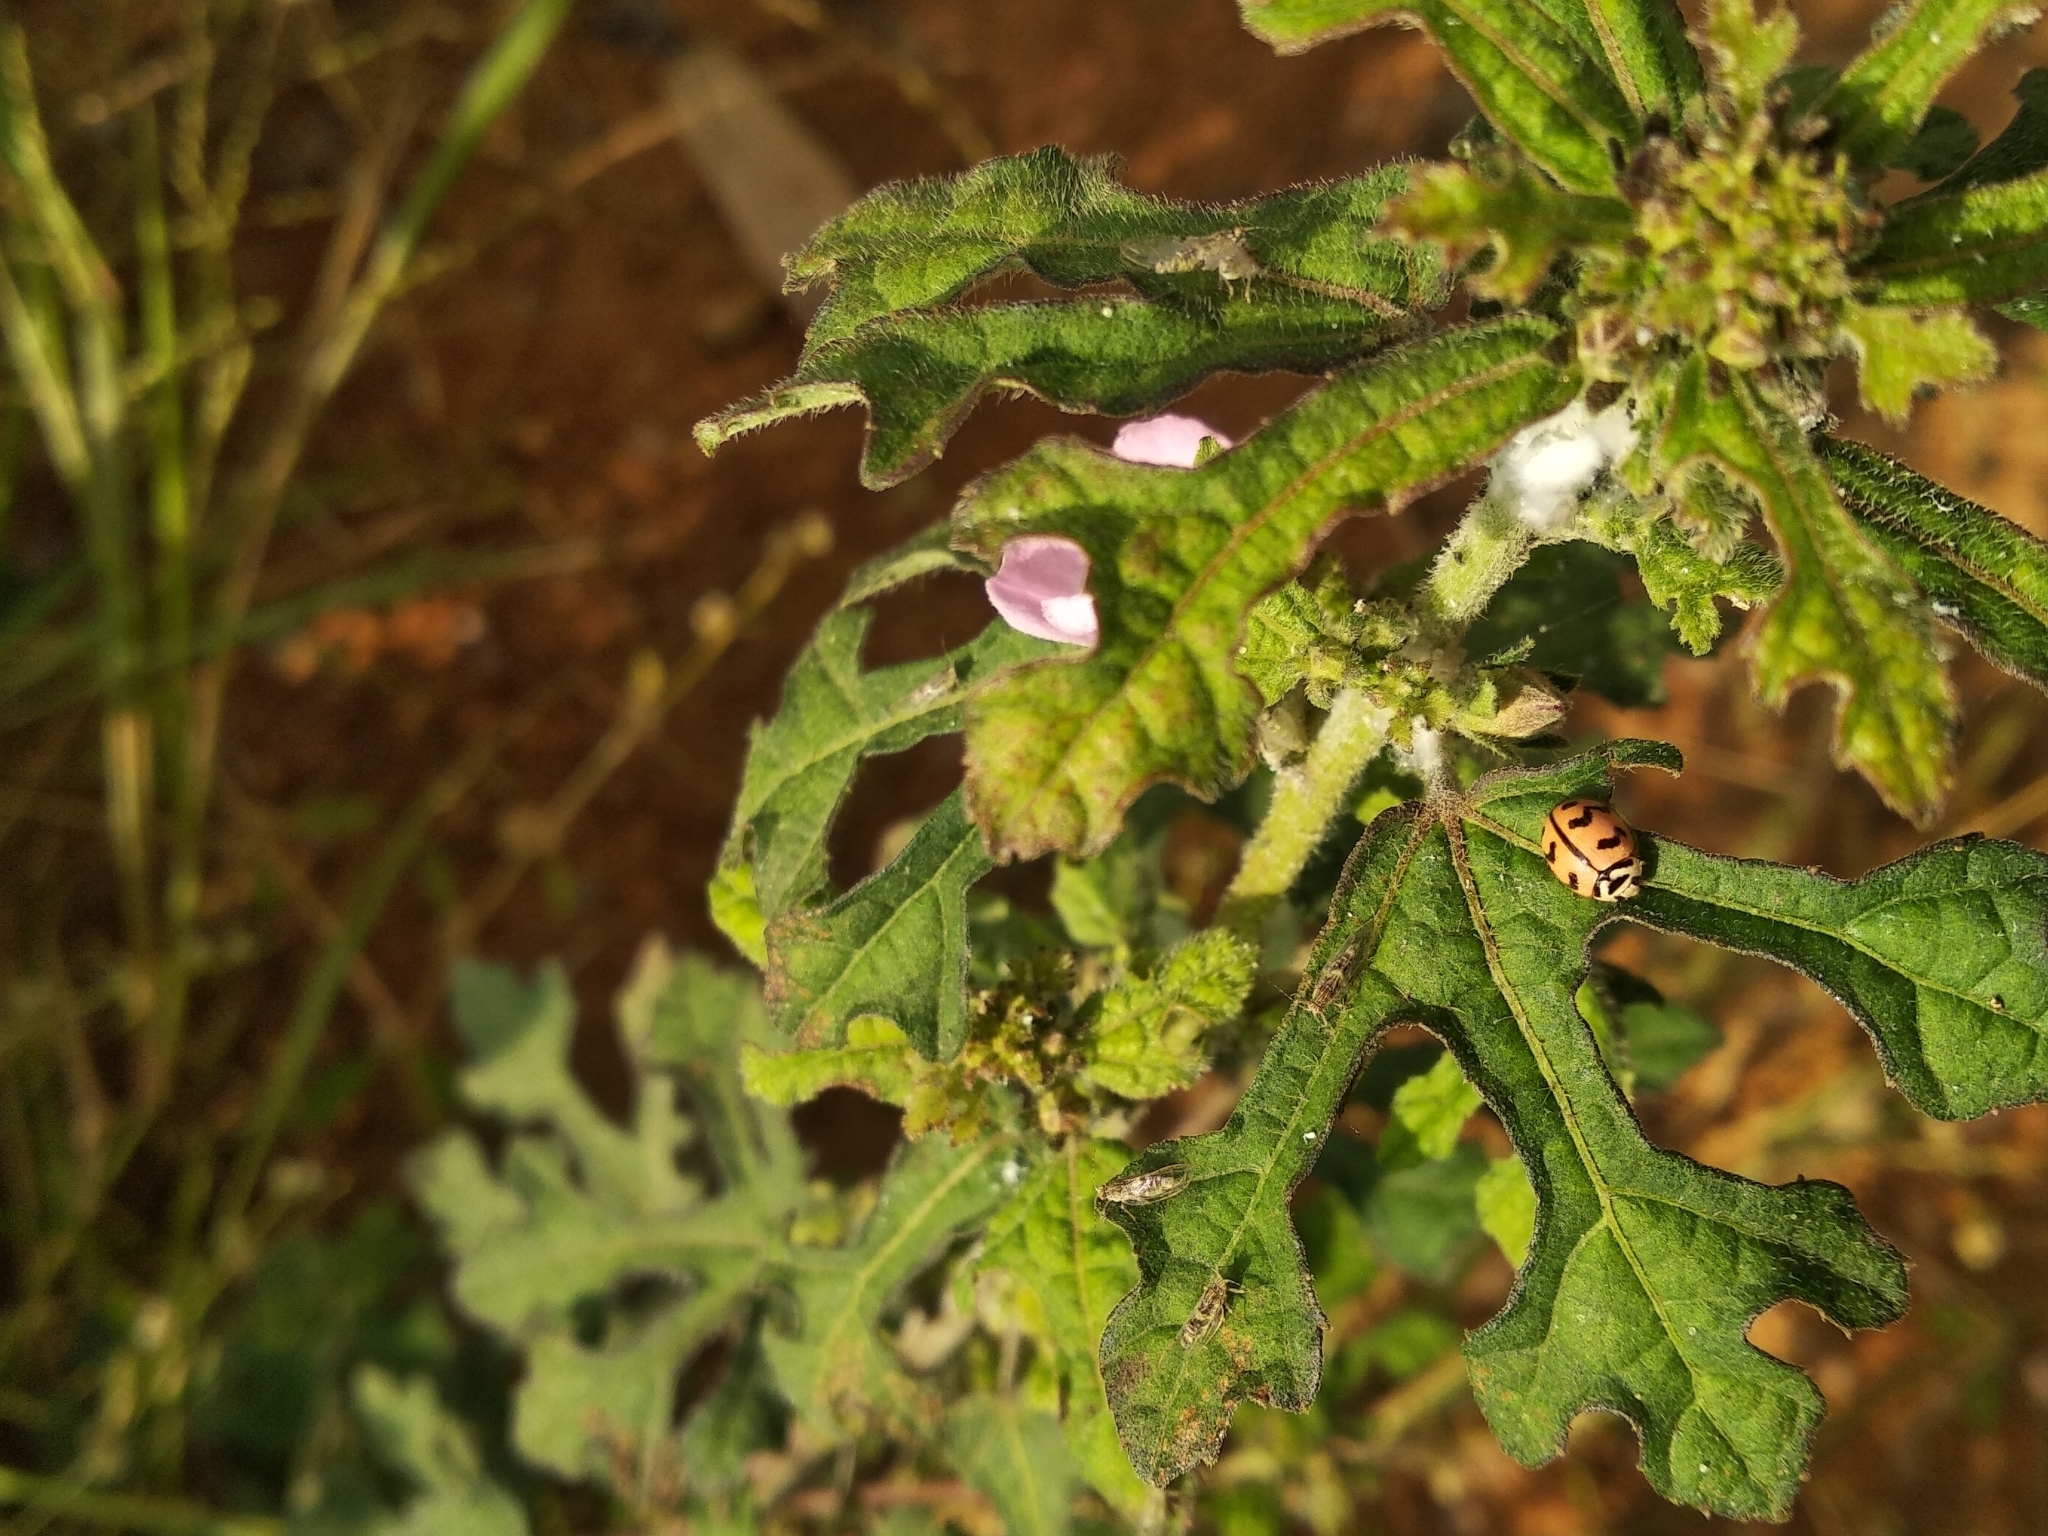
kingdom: Animalia
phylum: Arthropoda
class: Insecta
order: Coleoptera
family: Coccinellidae
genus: Cheilomenes
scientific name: Cheilomenes sexmaculata
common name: Ladybird beetle
